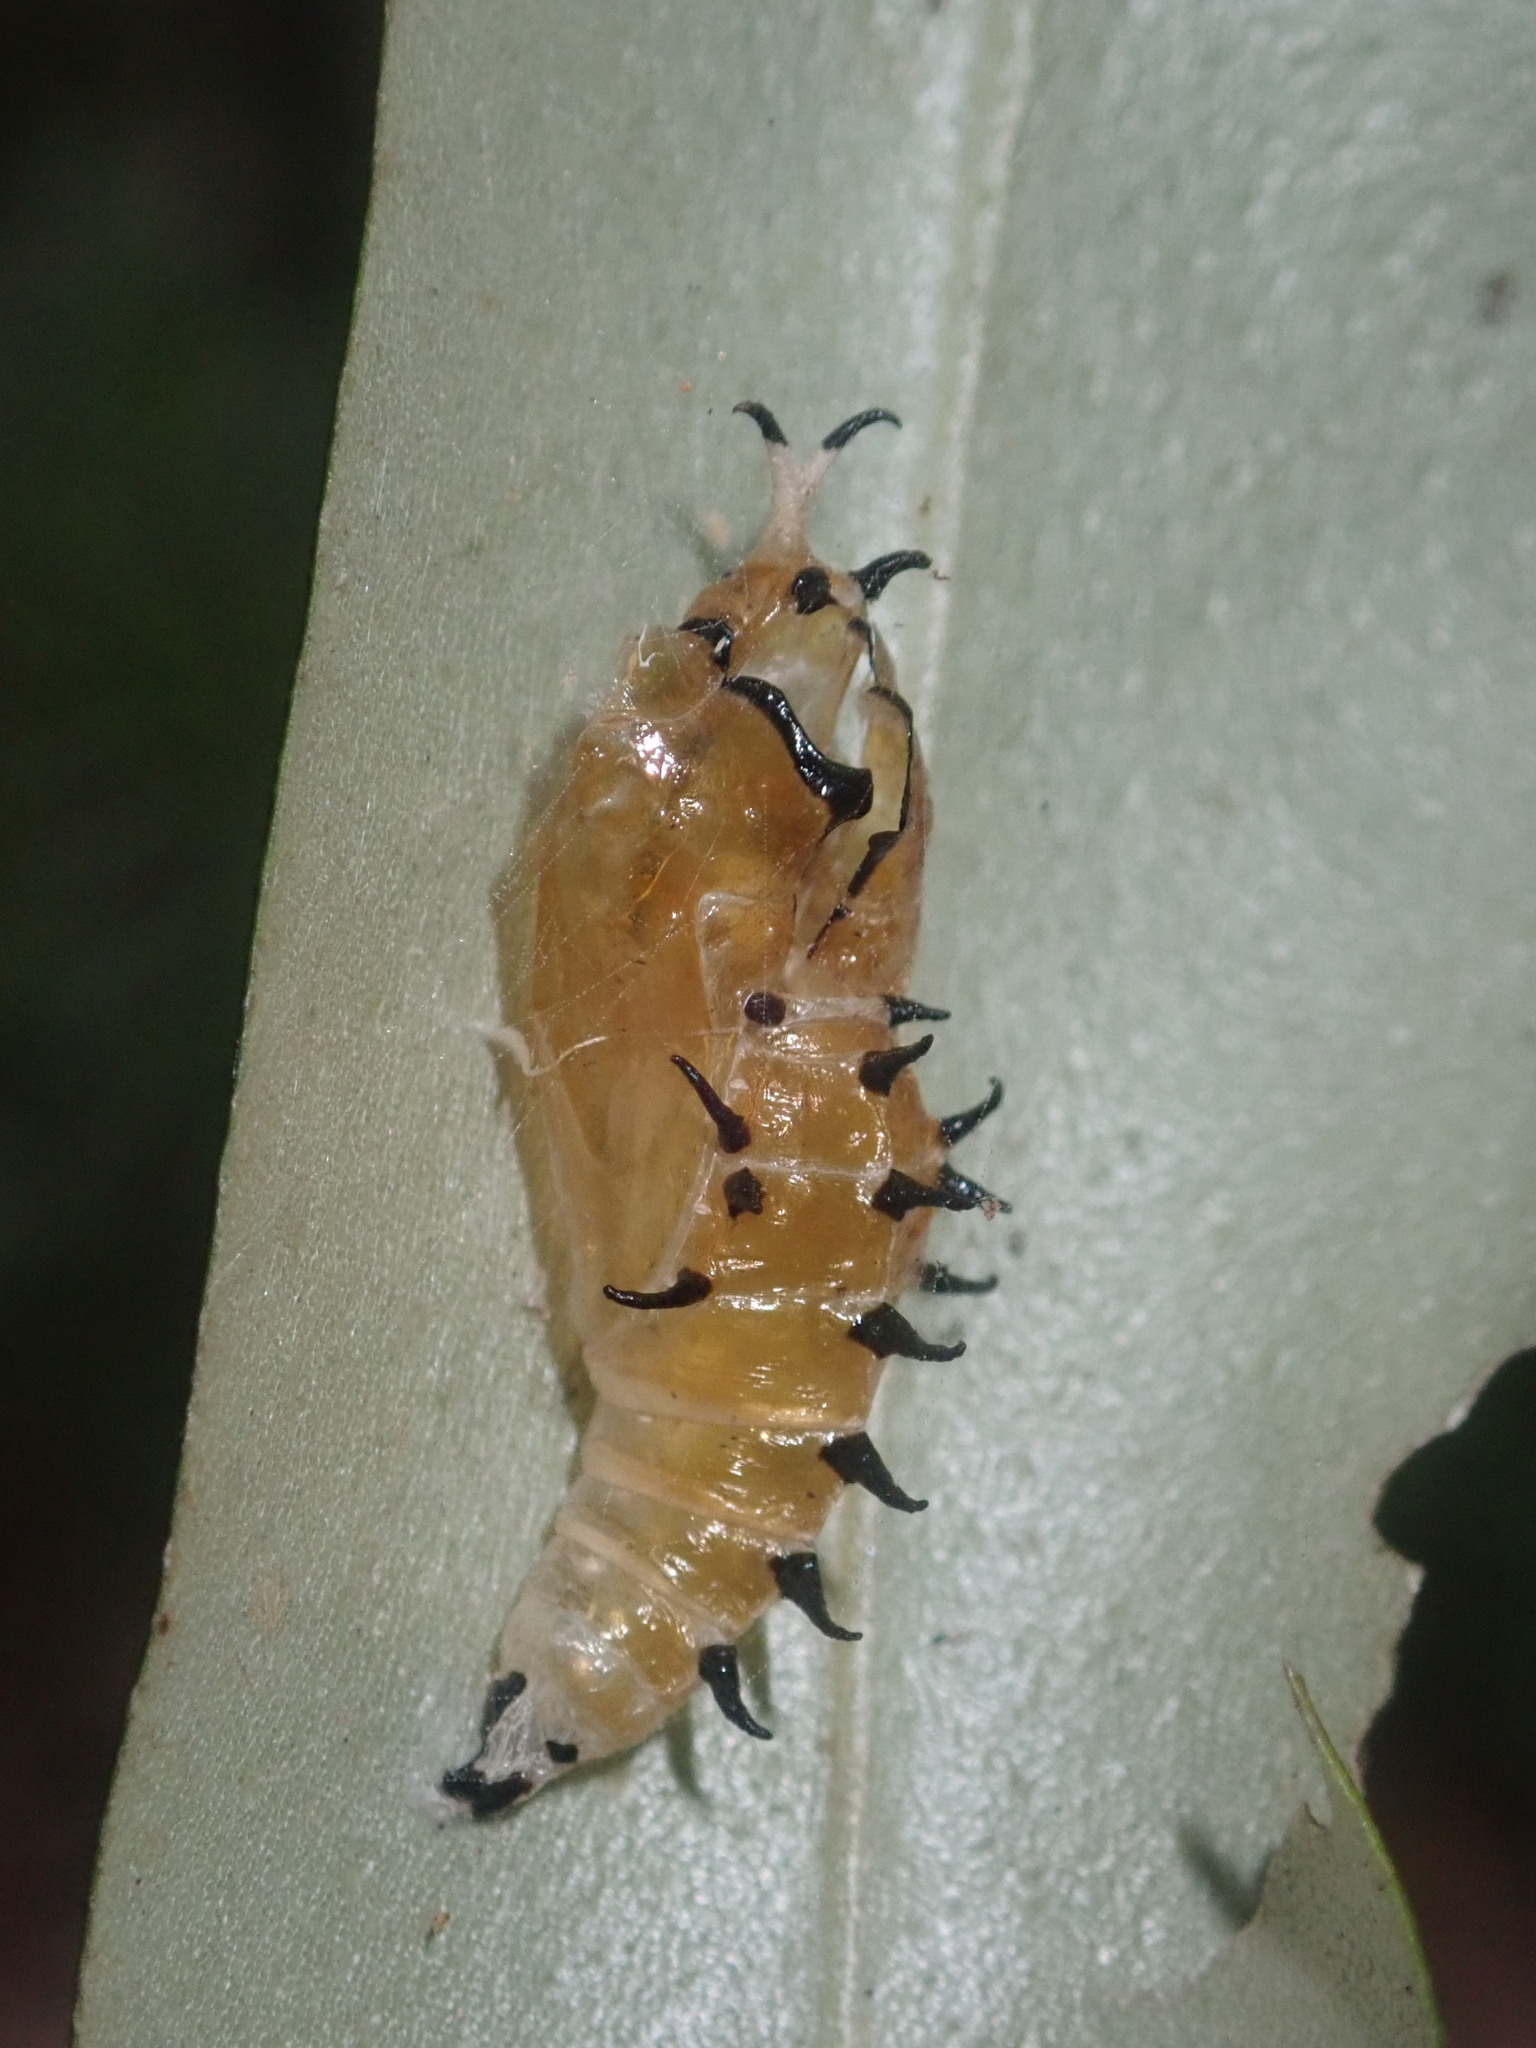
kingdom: Animalia
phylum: Arthropoda
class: Insecta
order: Lepidoptera
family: Pieridae
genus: Delias
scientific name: Delias nigrina
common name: Black jezebel
